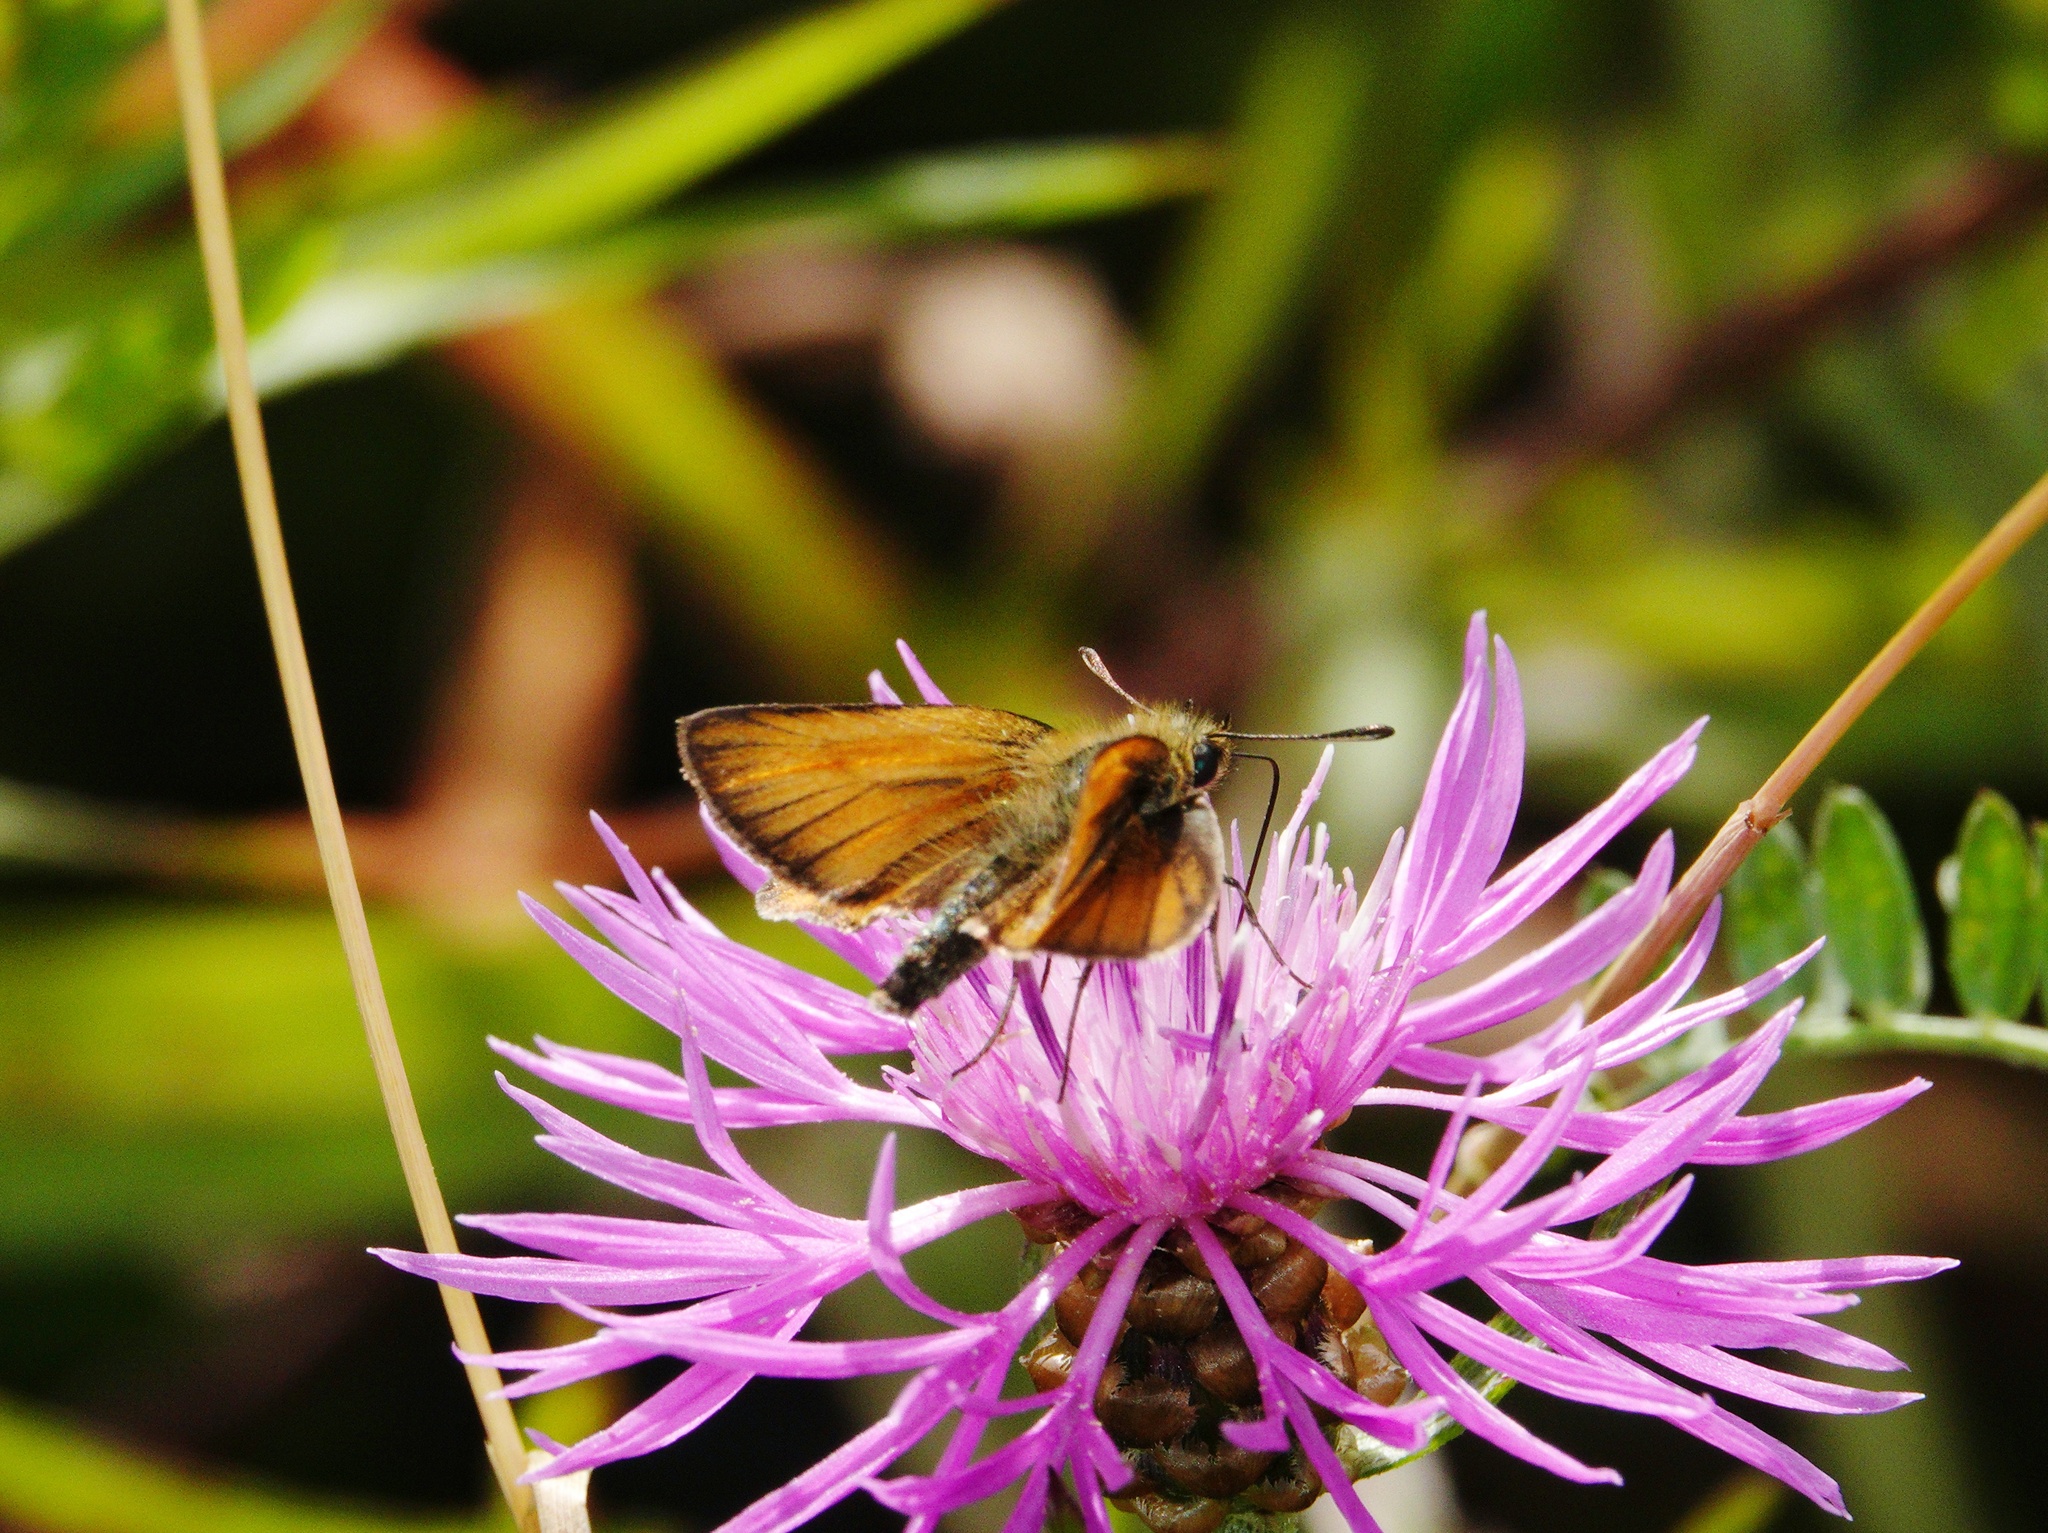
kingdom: Animalia
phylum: Arthropoda
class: Insecta
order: Lepidoptera
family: Hesperiidae
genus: Thymelicus
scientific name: Thymelicus lineola
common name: Essex skipper
